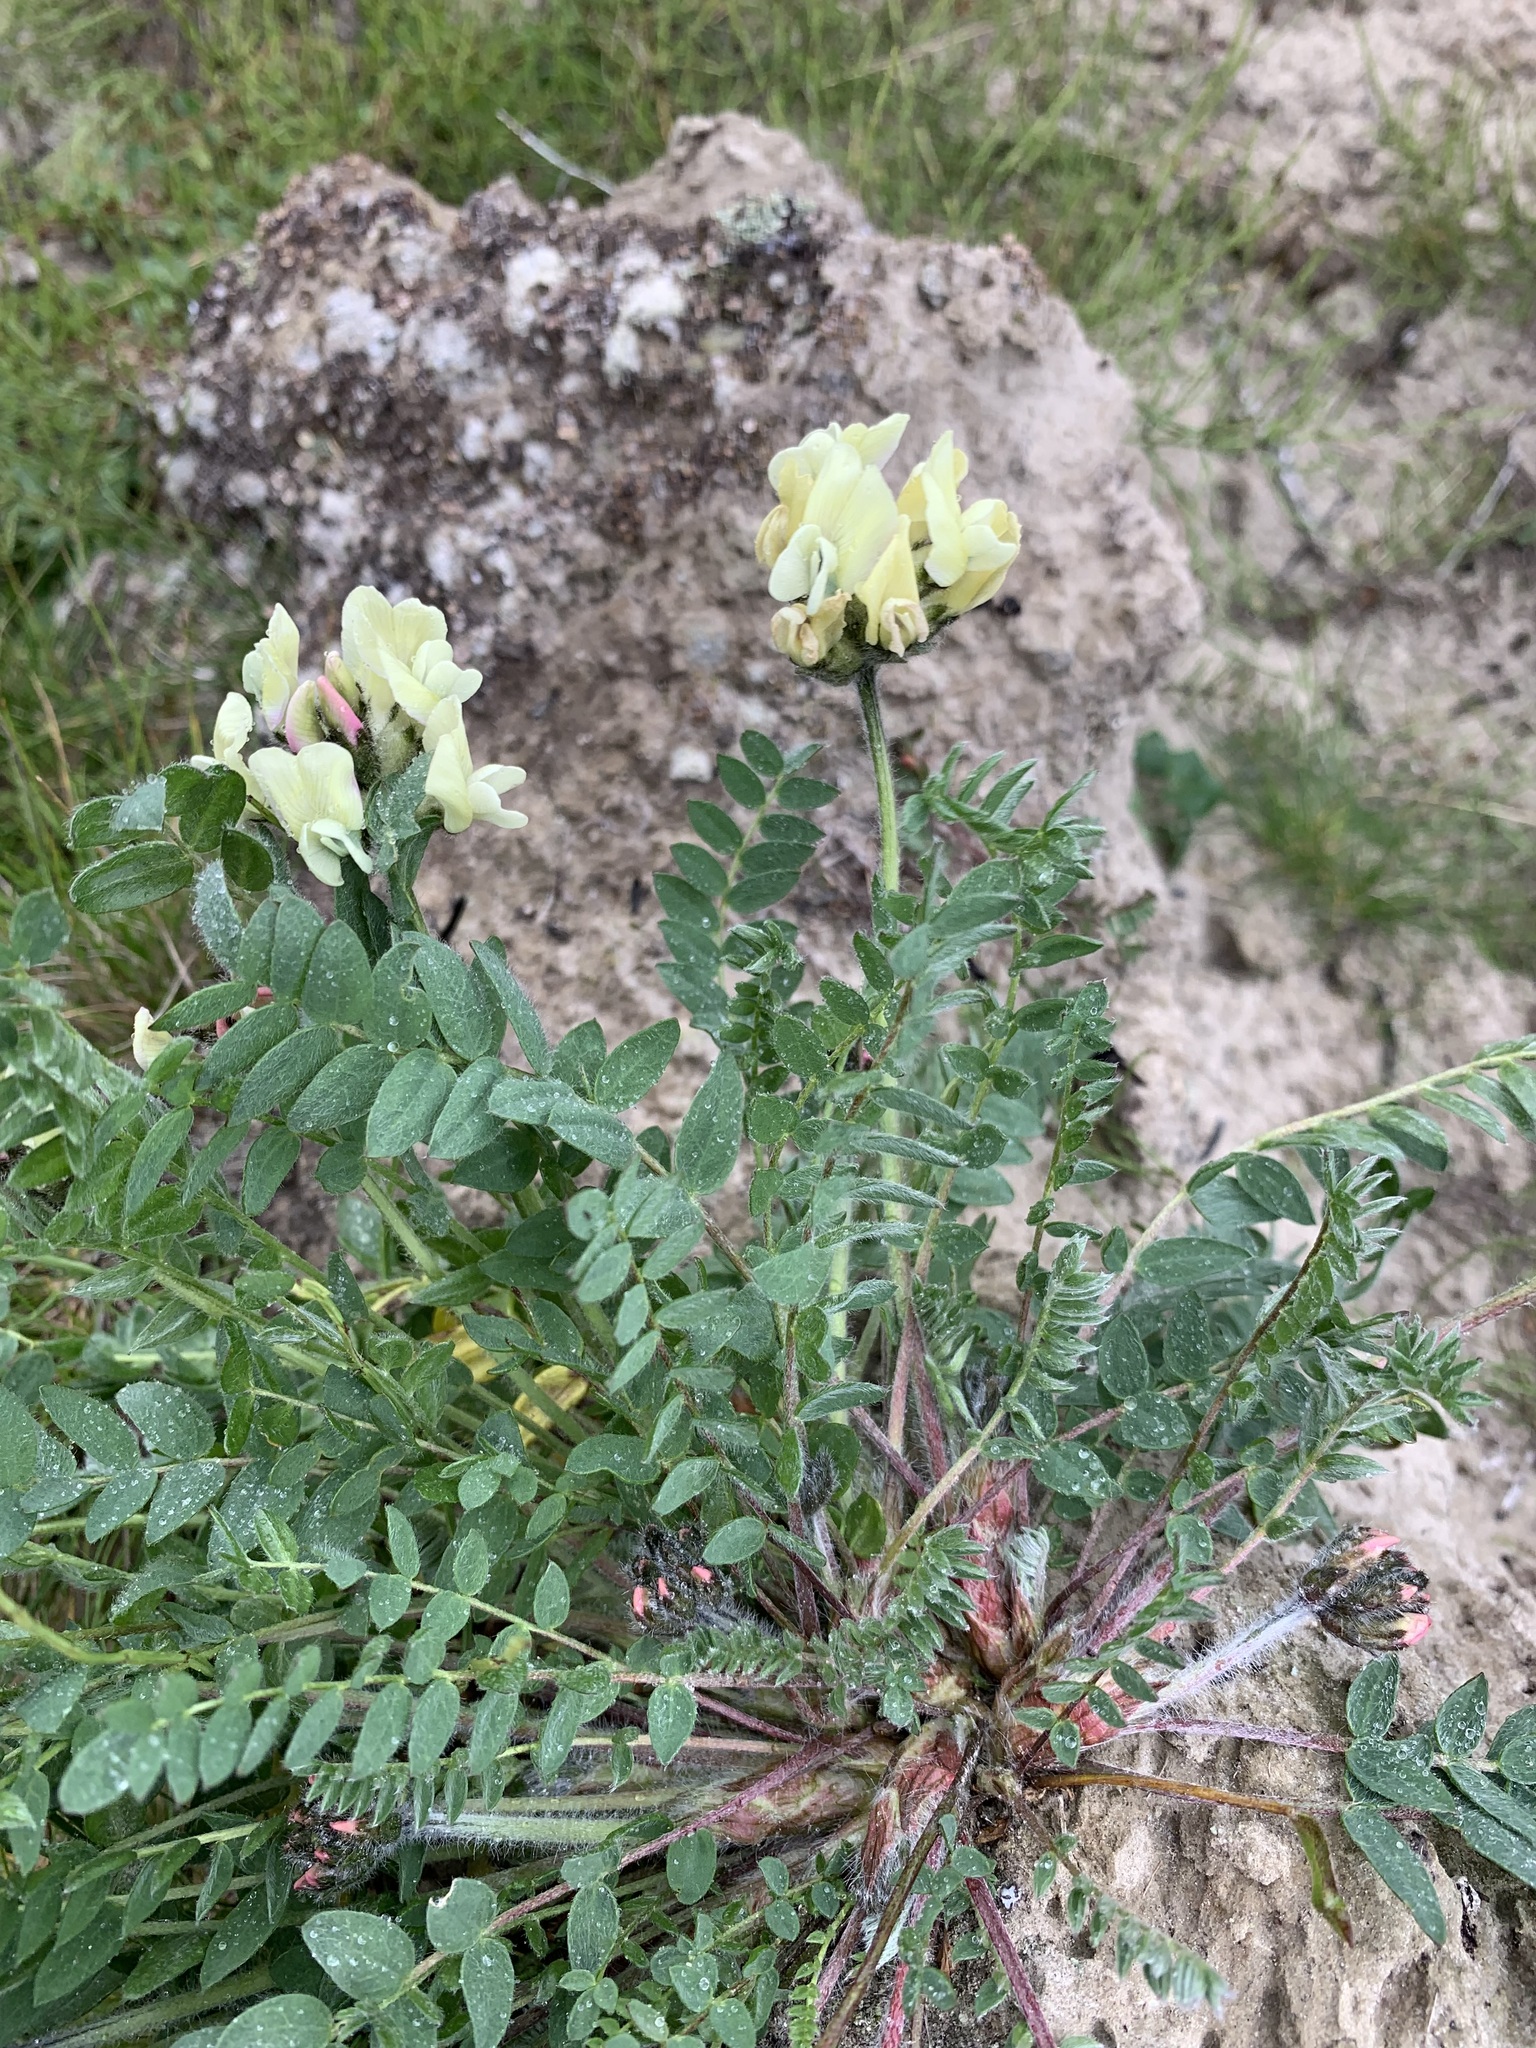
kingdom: Plantae
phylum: Tracheophyta
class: Magnoliopsida
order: Fabales
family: Fabaceae
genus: Oxytropis
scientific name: Oxytropis sordida
